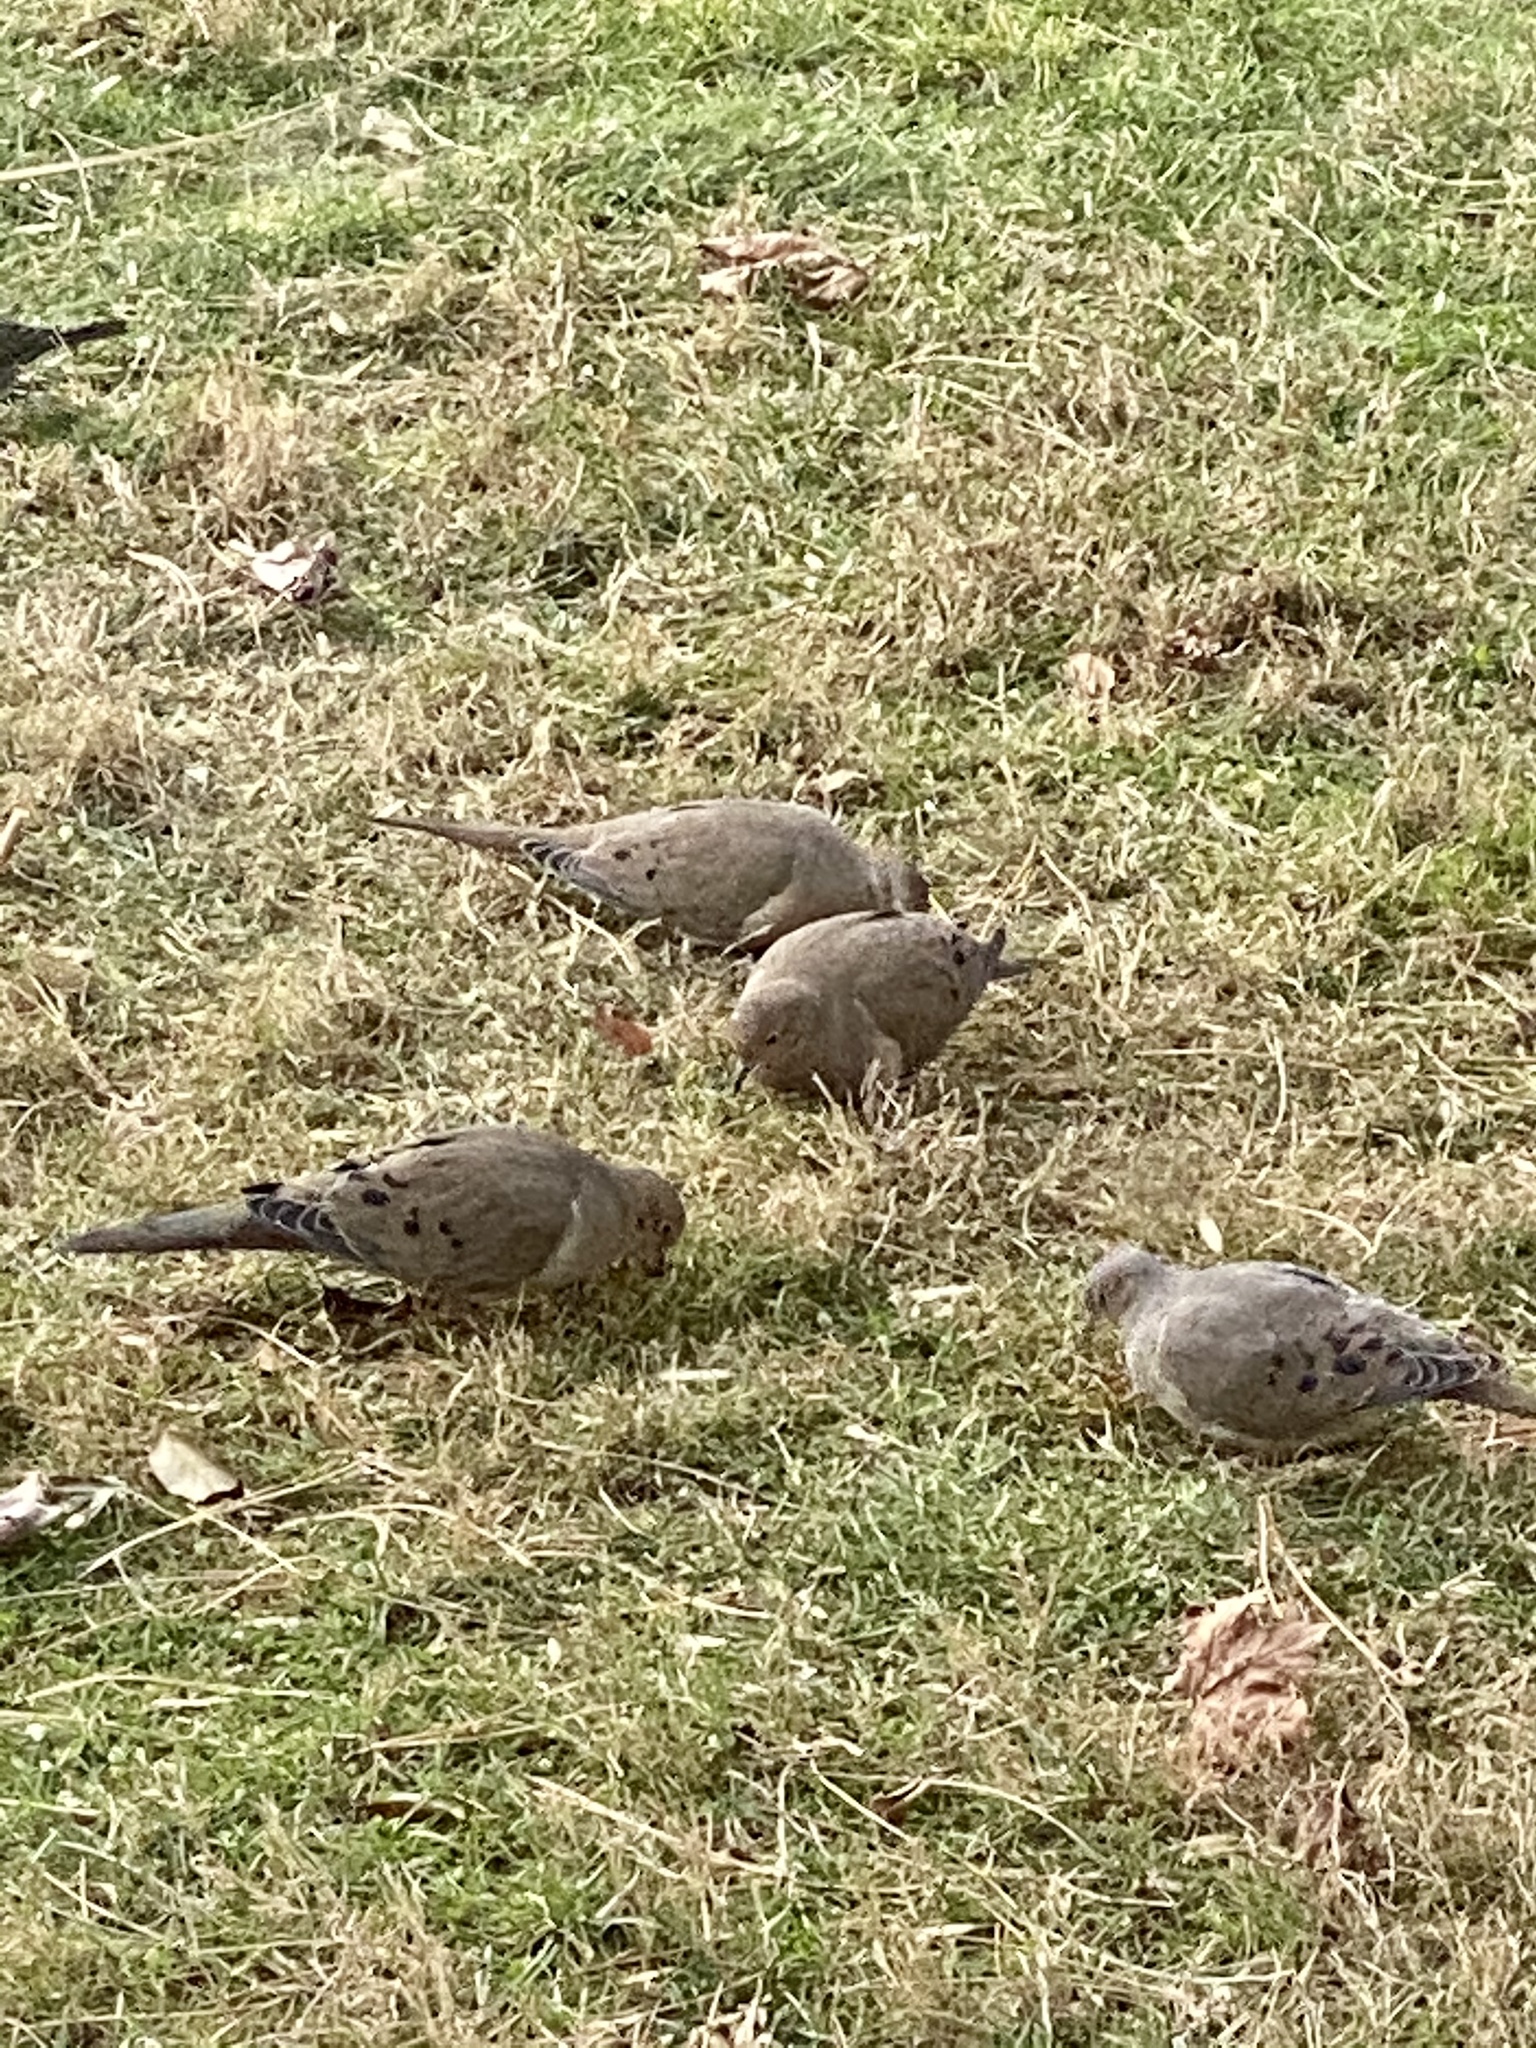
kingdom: Animalia
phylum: Chordata
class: Aves
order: Columbiformes
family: Columbidae
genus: Zenaida
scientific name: Zenaida macroura
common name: Mourning dove
